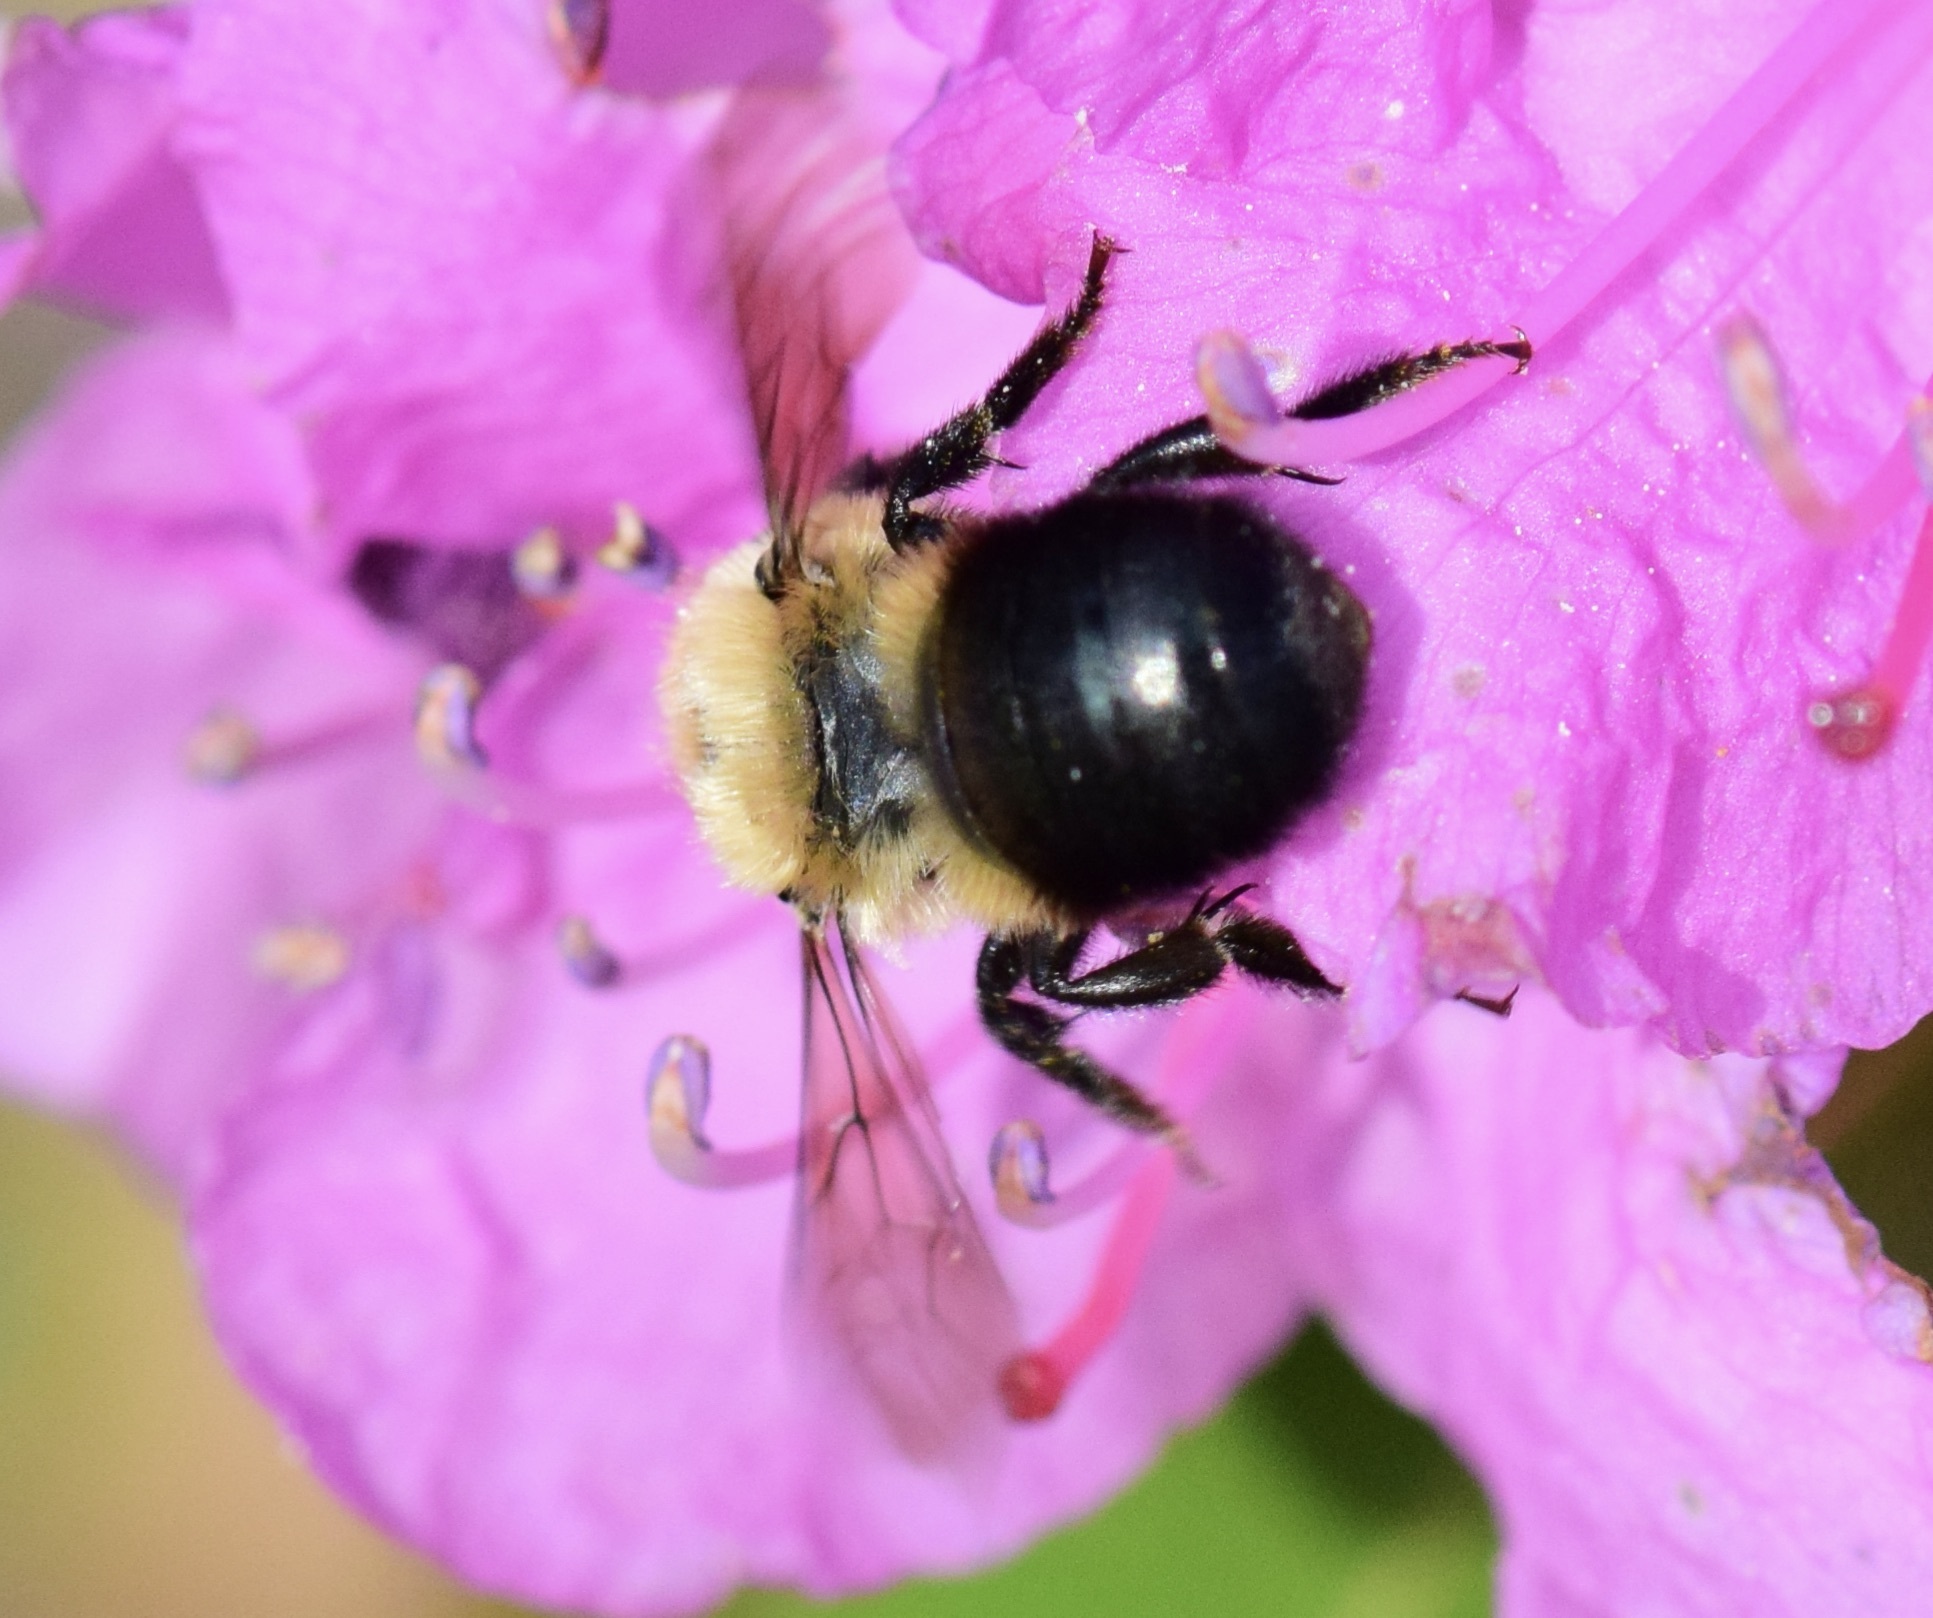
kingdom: Animalia
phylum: Arthropoda
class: Insecta
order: Hymenoptera
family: Megachilidae
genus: Osmia
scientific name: Osmia bucephala
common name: Bufflehead mason bee
